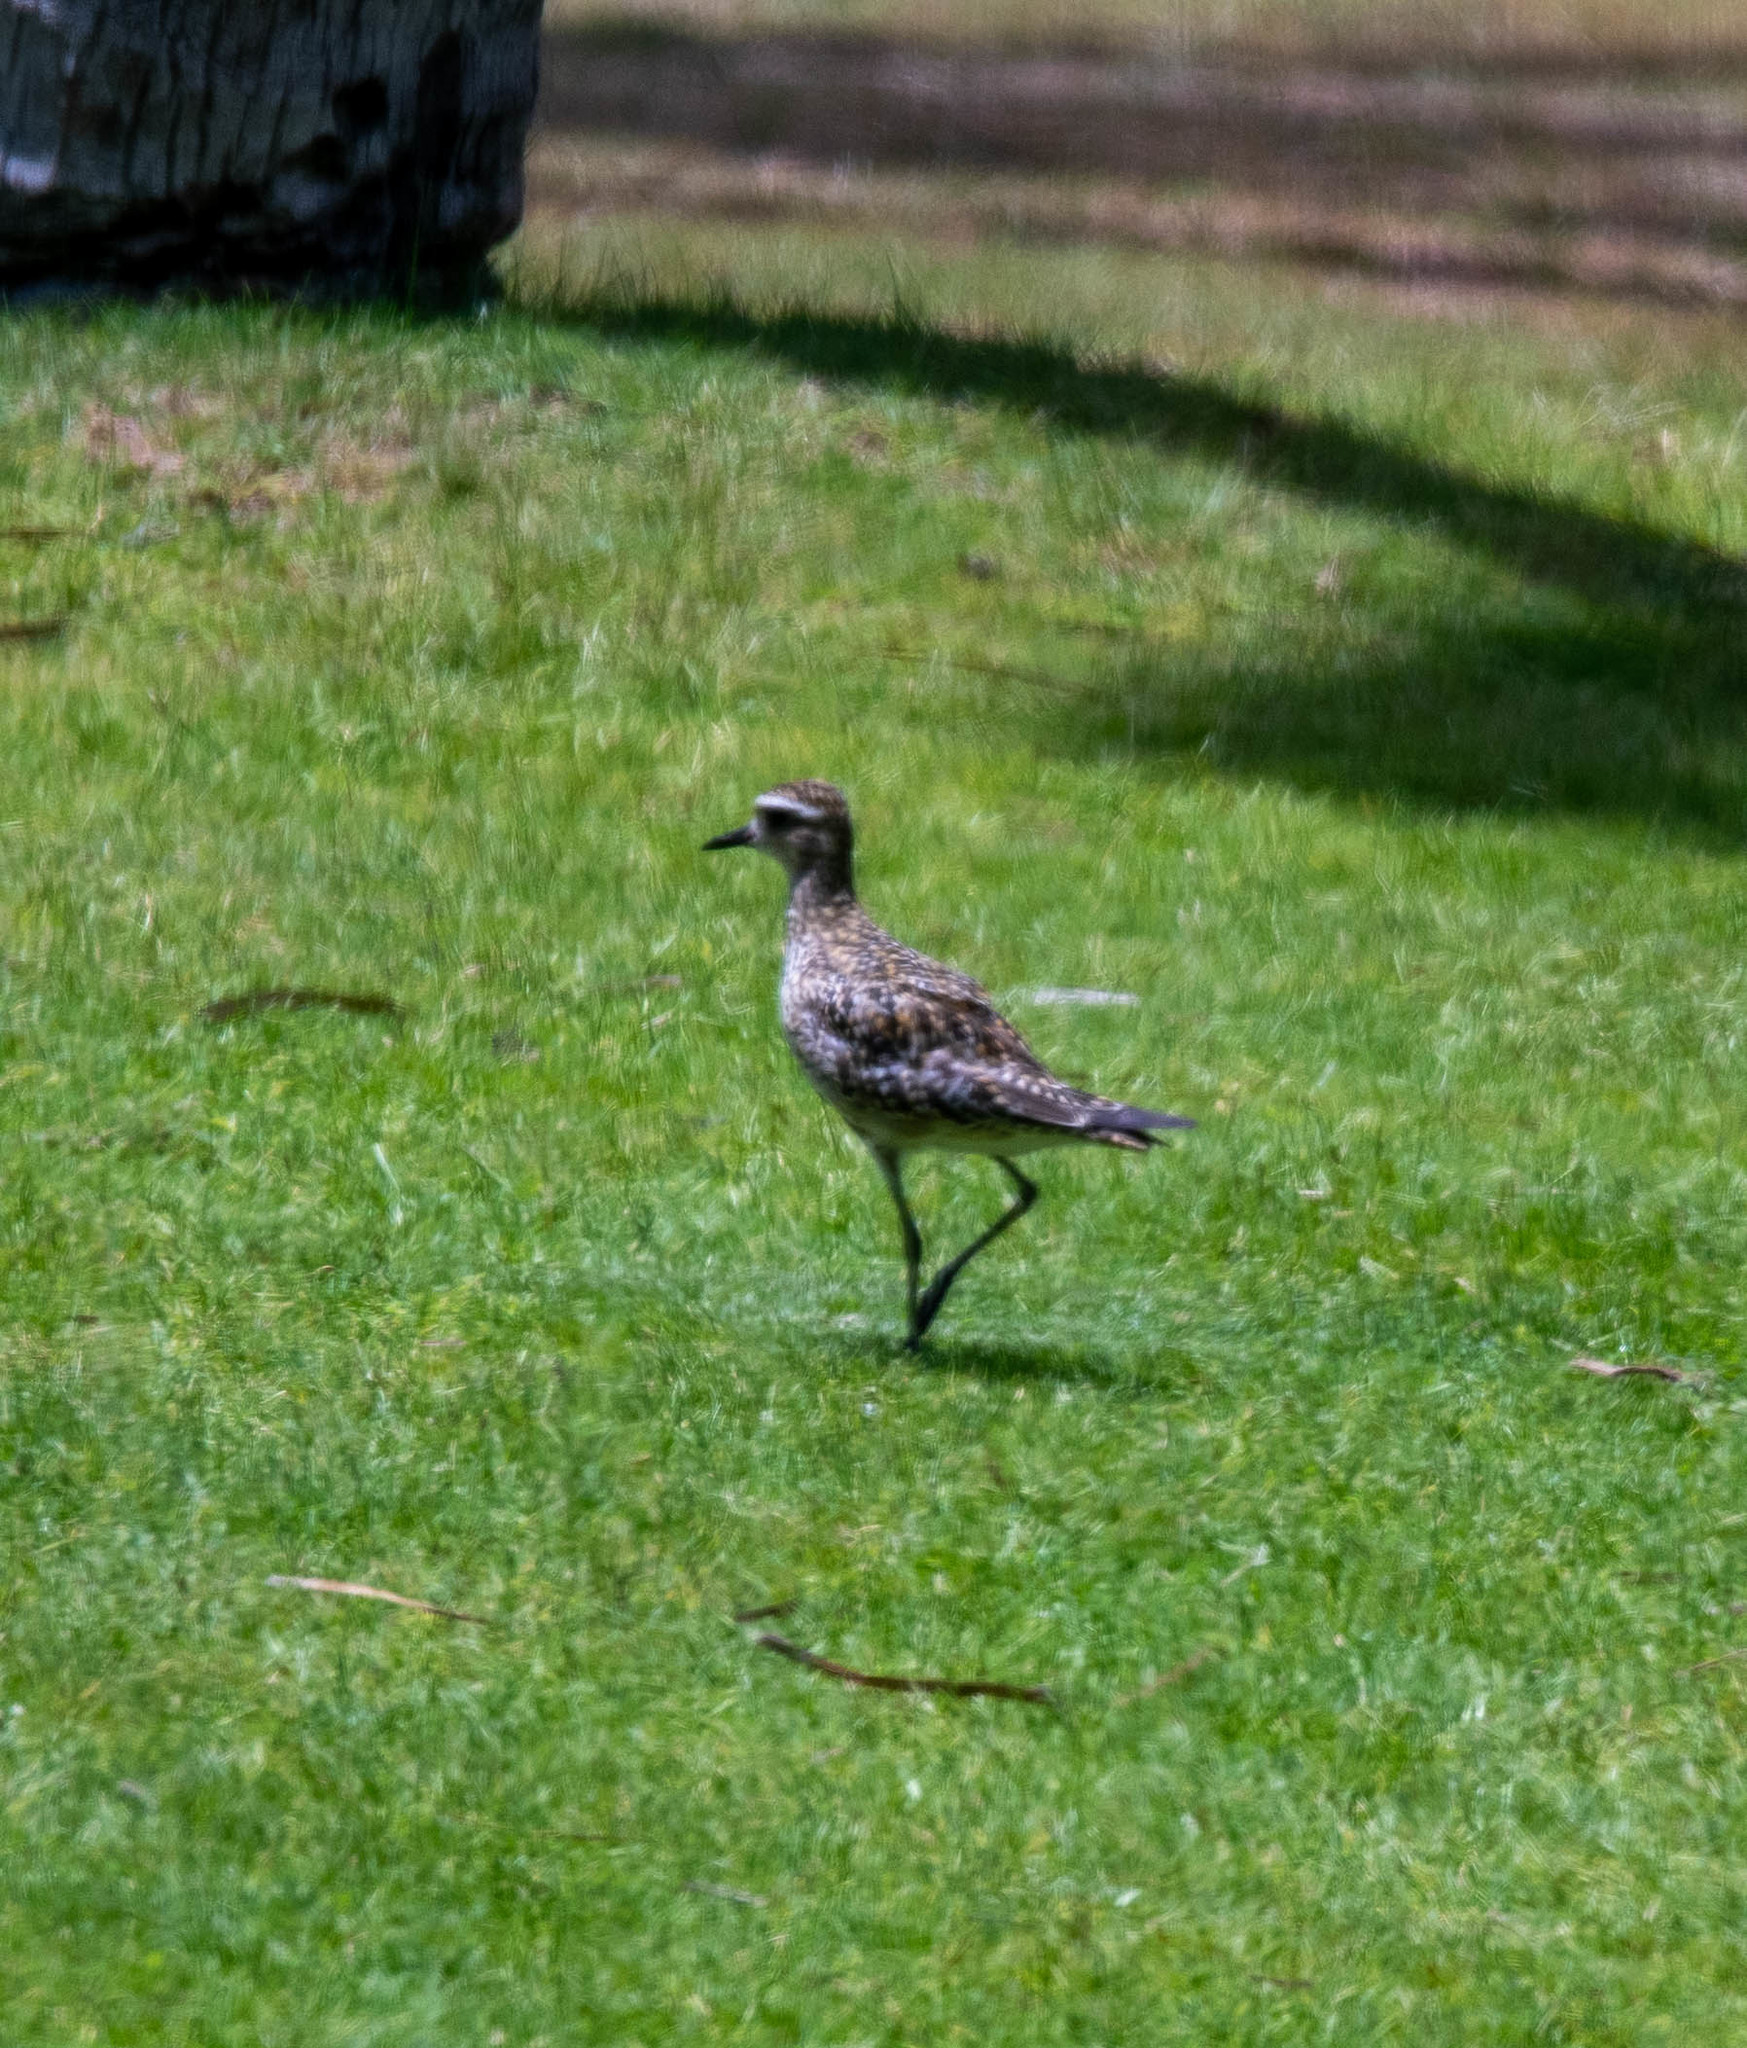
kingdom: Animalia
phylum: Chordata
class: Aves
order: Charadriiformes
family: Charadriidae
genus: Pluvialis
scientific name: Pluvialis fulva
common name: Pacific golden plover
